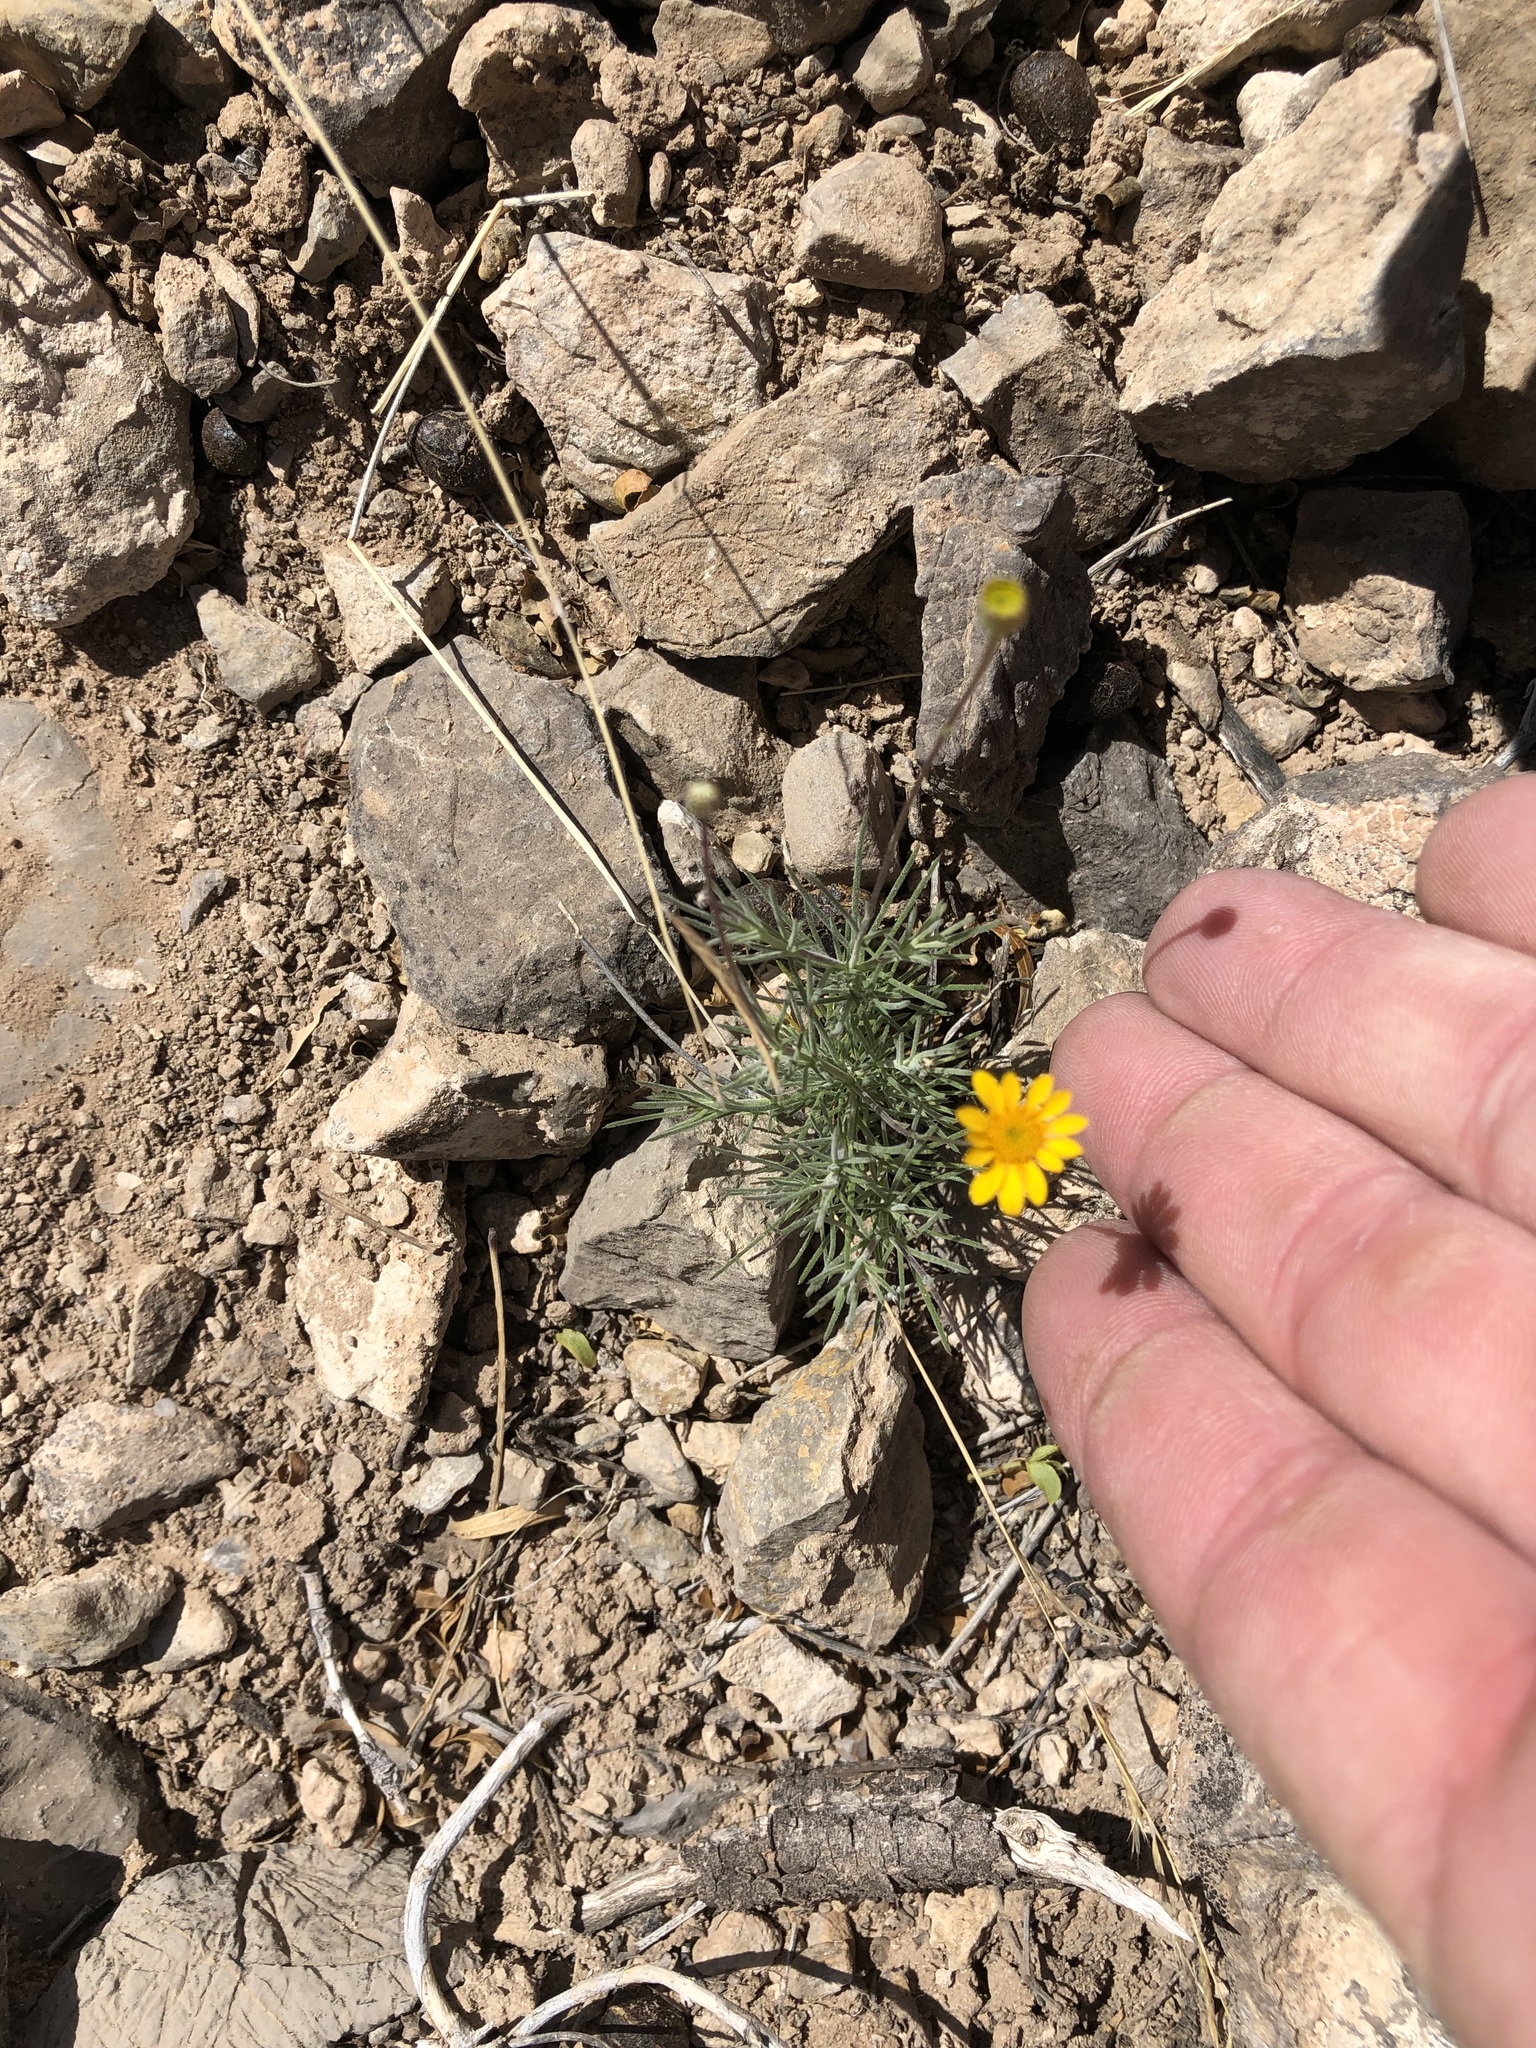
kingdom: Plantae
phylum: Tracheophyta
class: Magnoliopsida
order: Asterales
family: Asteraceae
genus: Thymophylla
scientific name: Thymophylla pentachaeta
